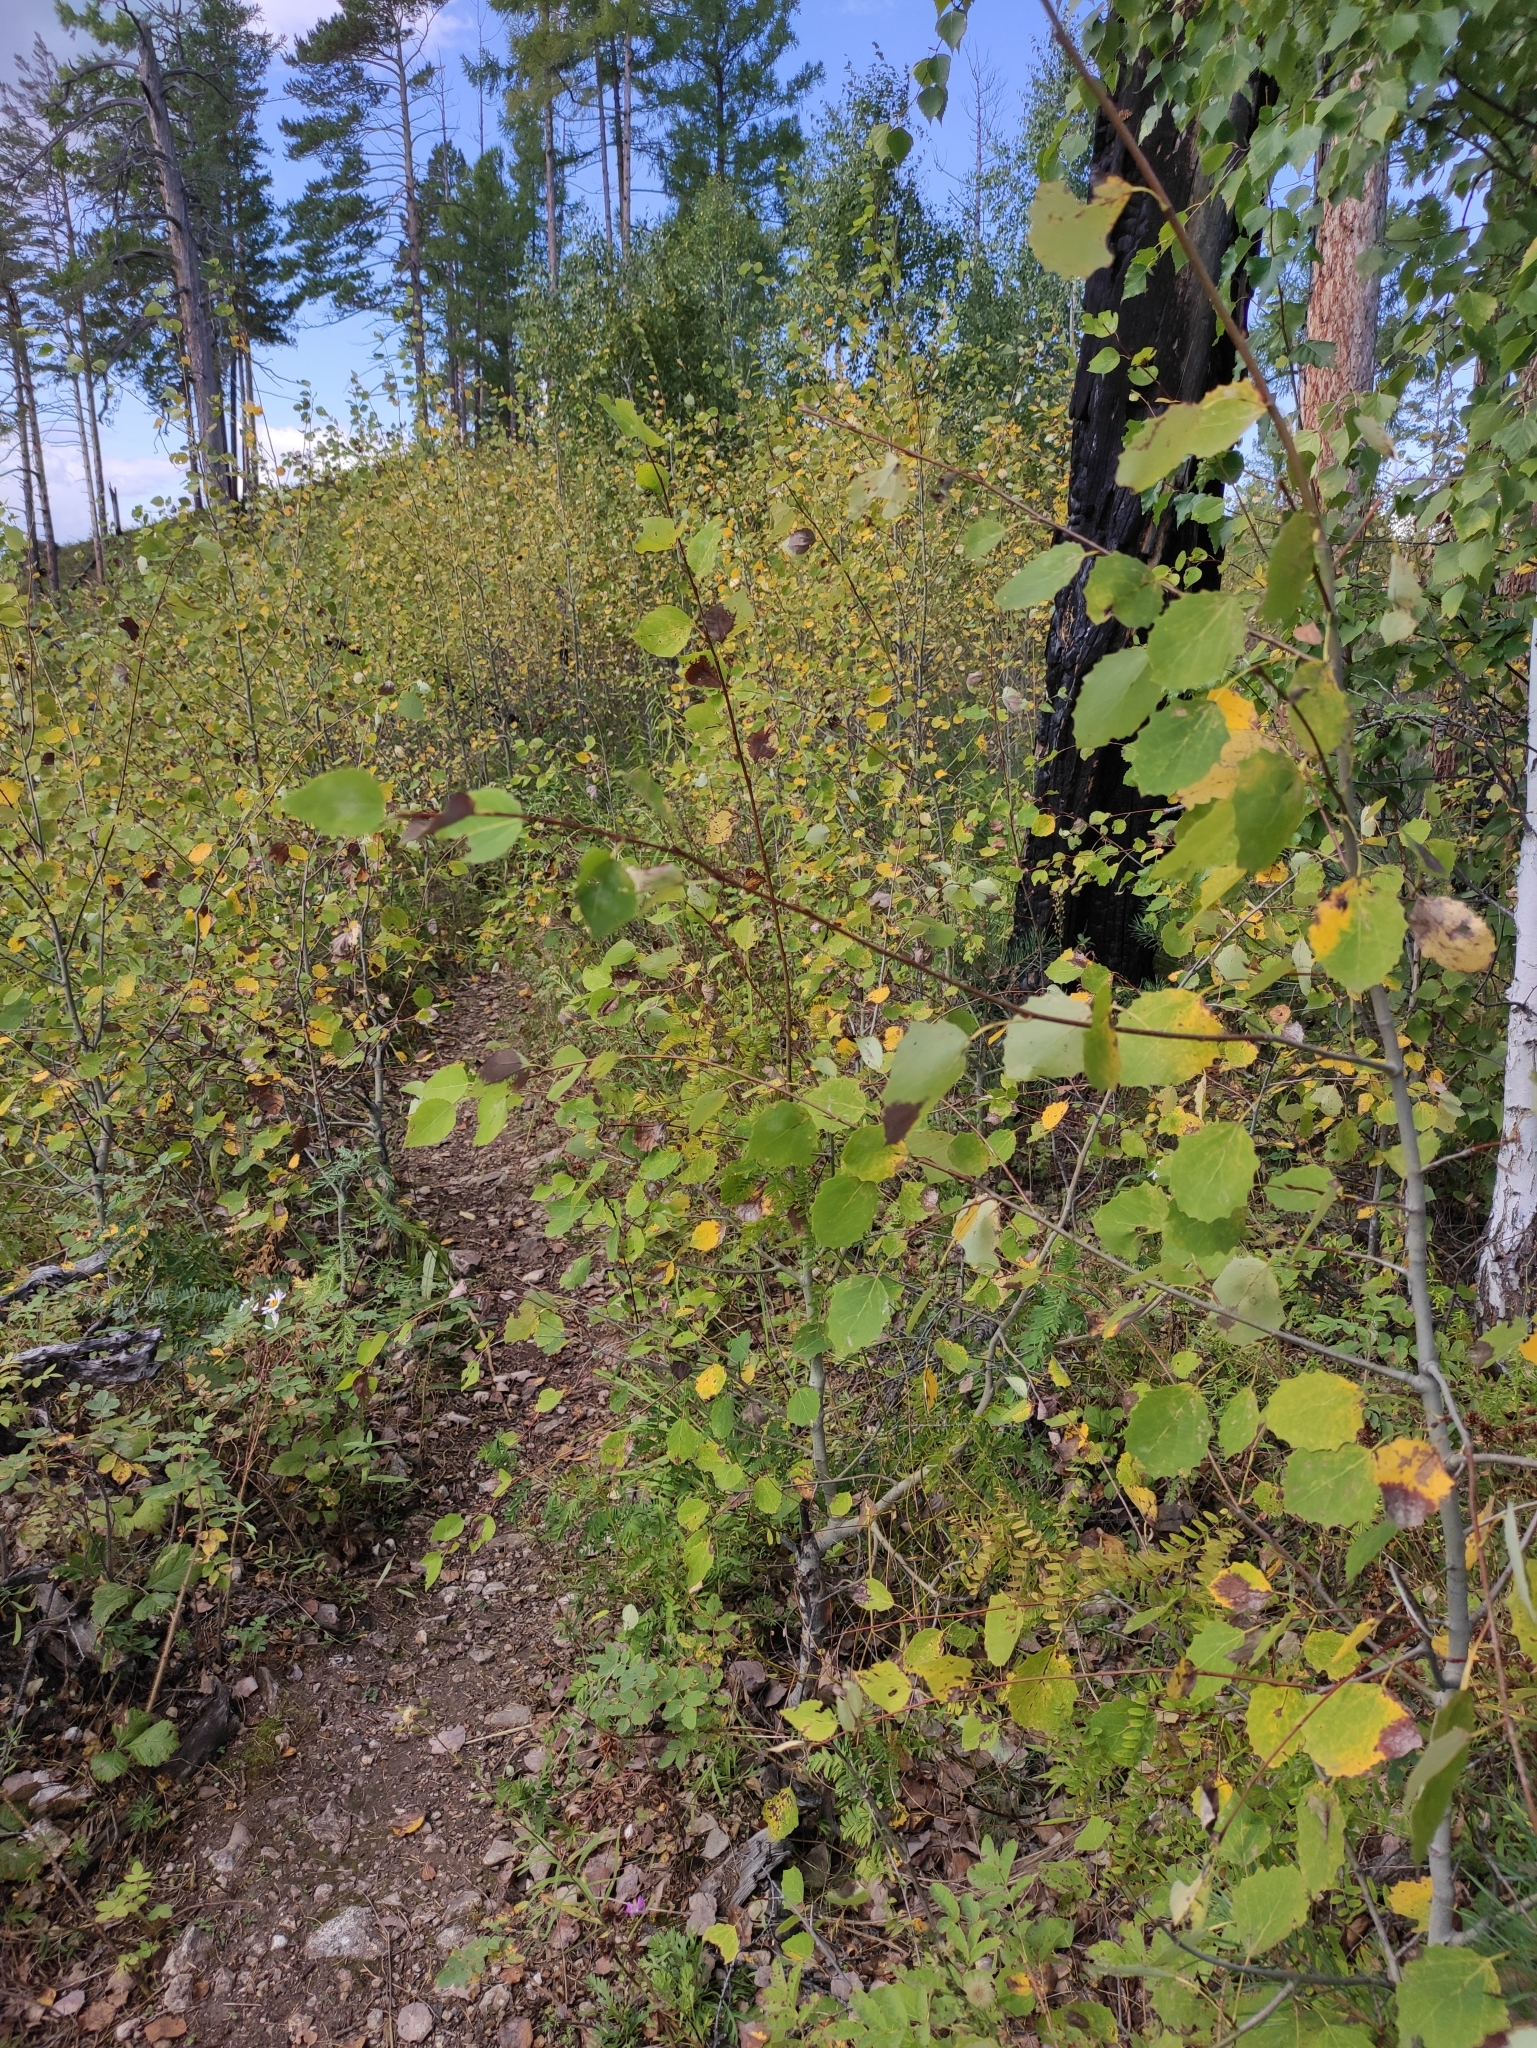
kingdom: Plantae
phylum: Tracheophyta
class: Magnoliopsida
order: Malpighiales
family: Salicaceae
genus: Populus
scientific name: Populus tremula
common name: European aspen
